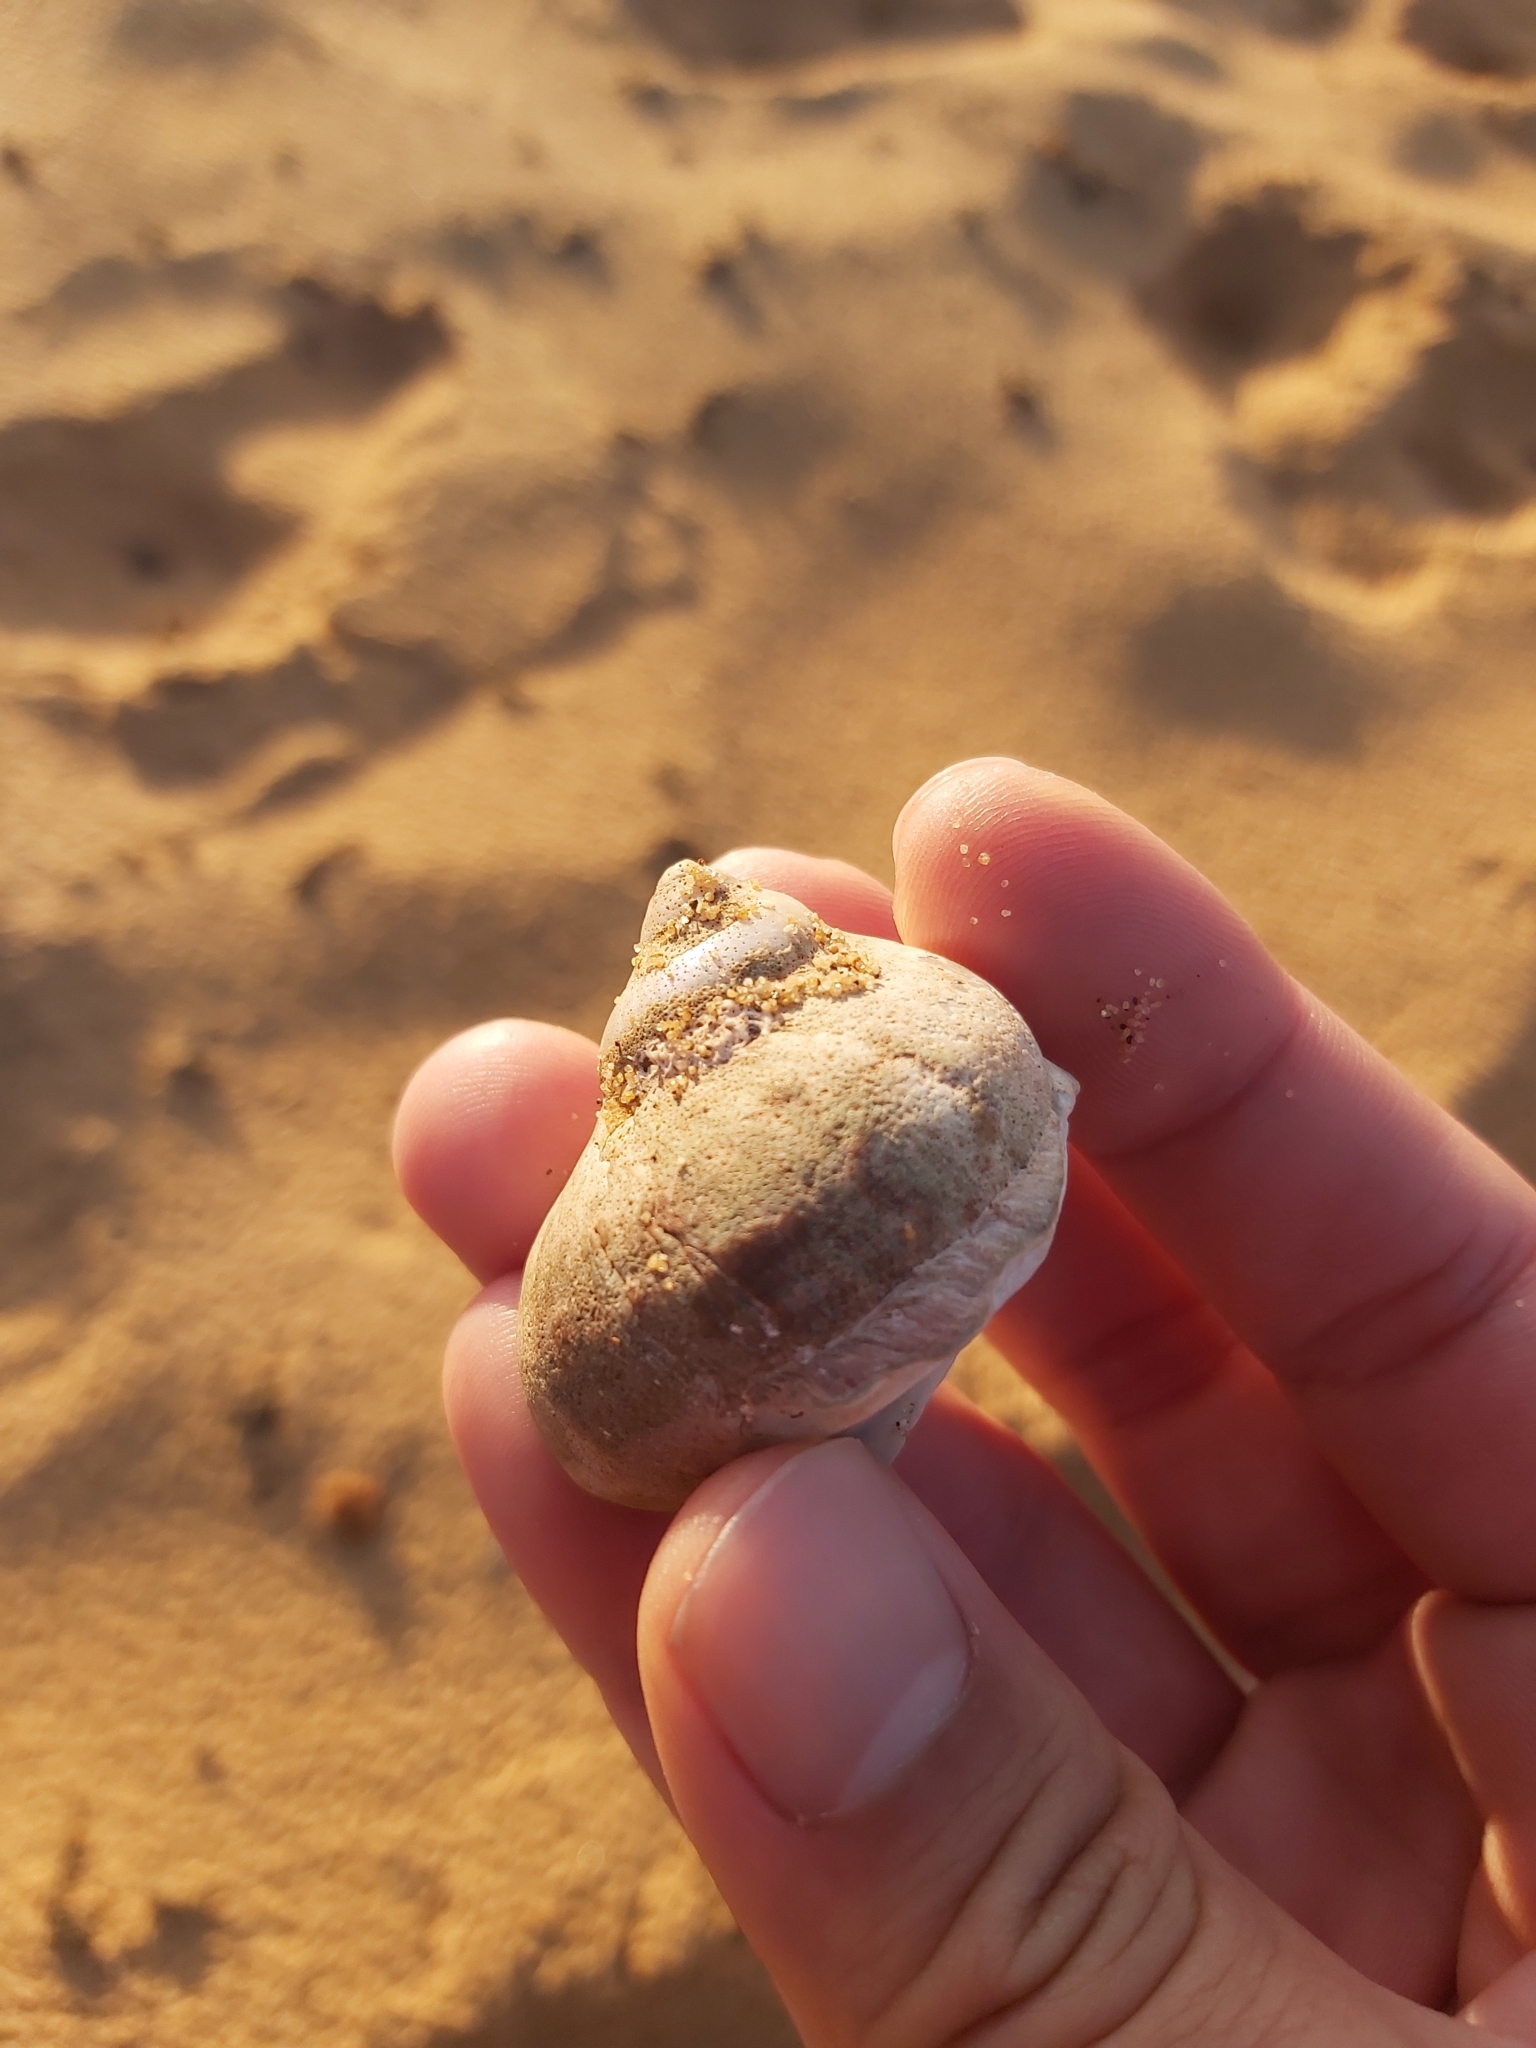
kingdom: Animalia
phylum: Mollusca
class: Gastropoda
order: Trochida
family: Turbinidae
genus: Turbo
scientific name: Turbo militaris
